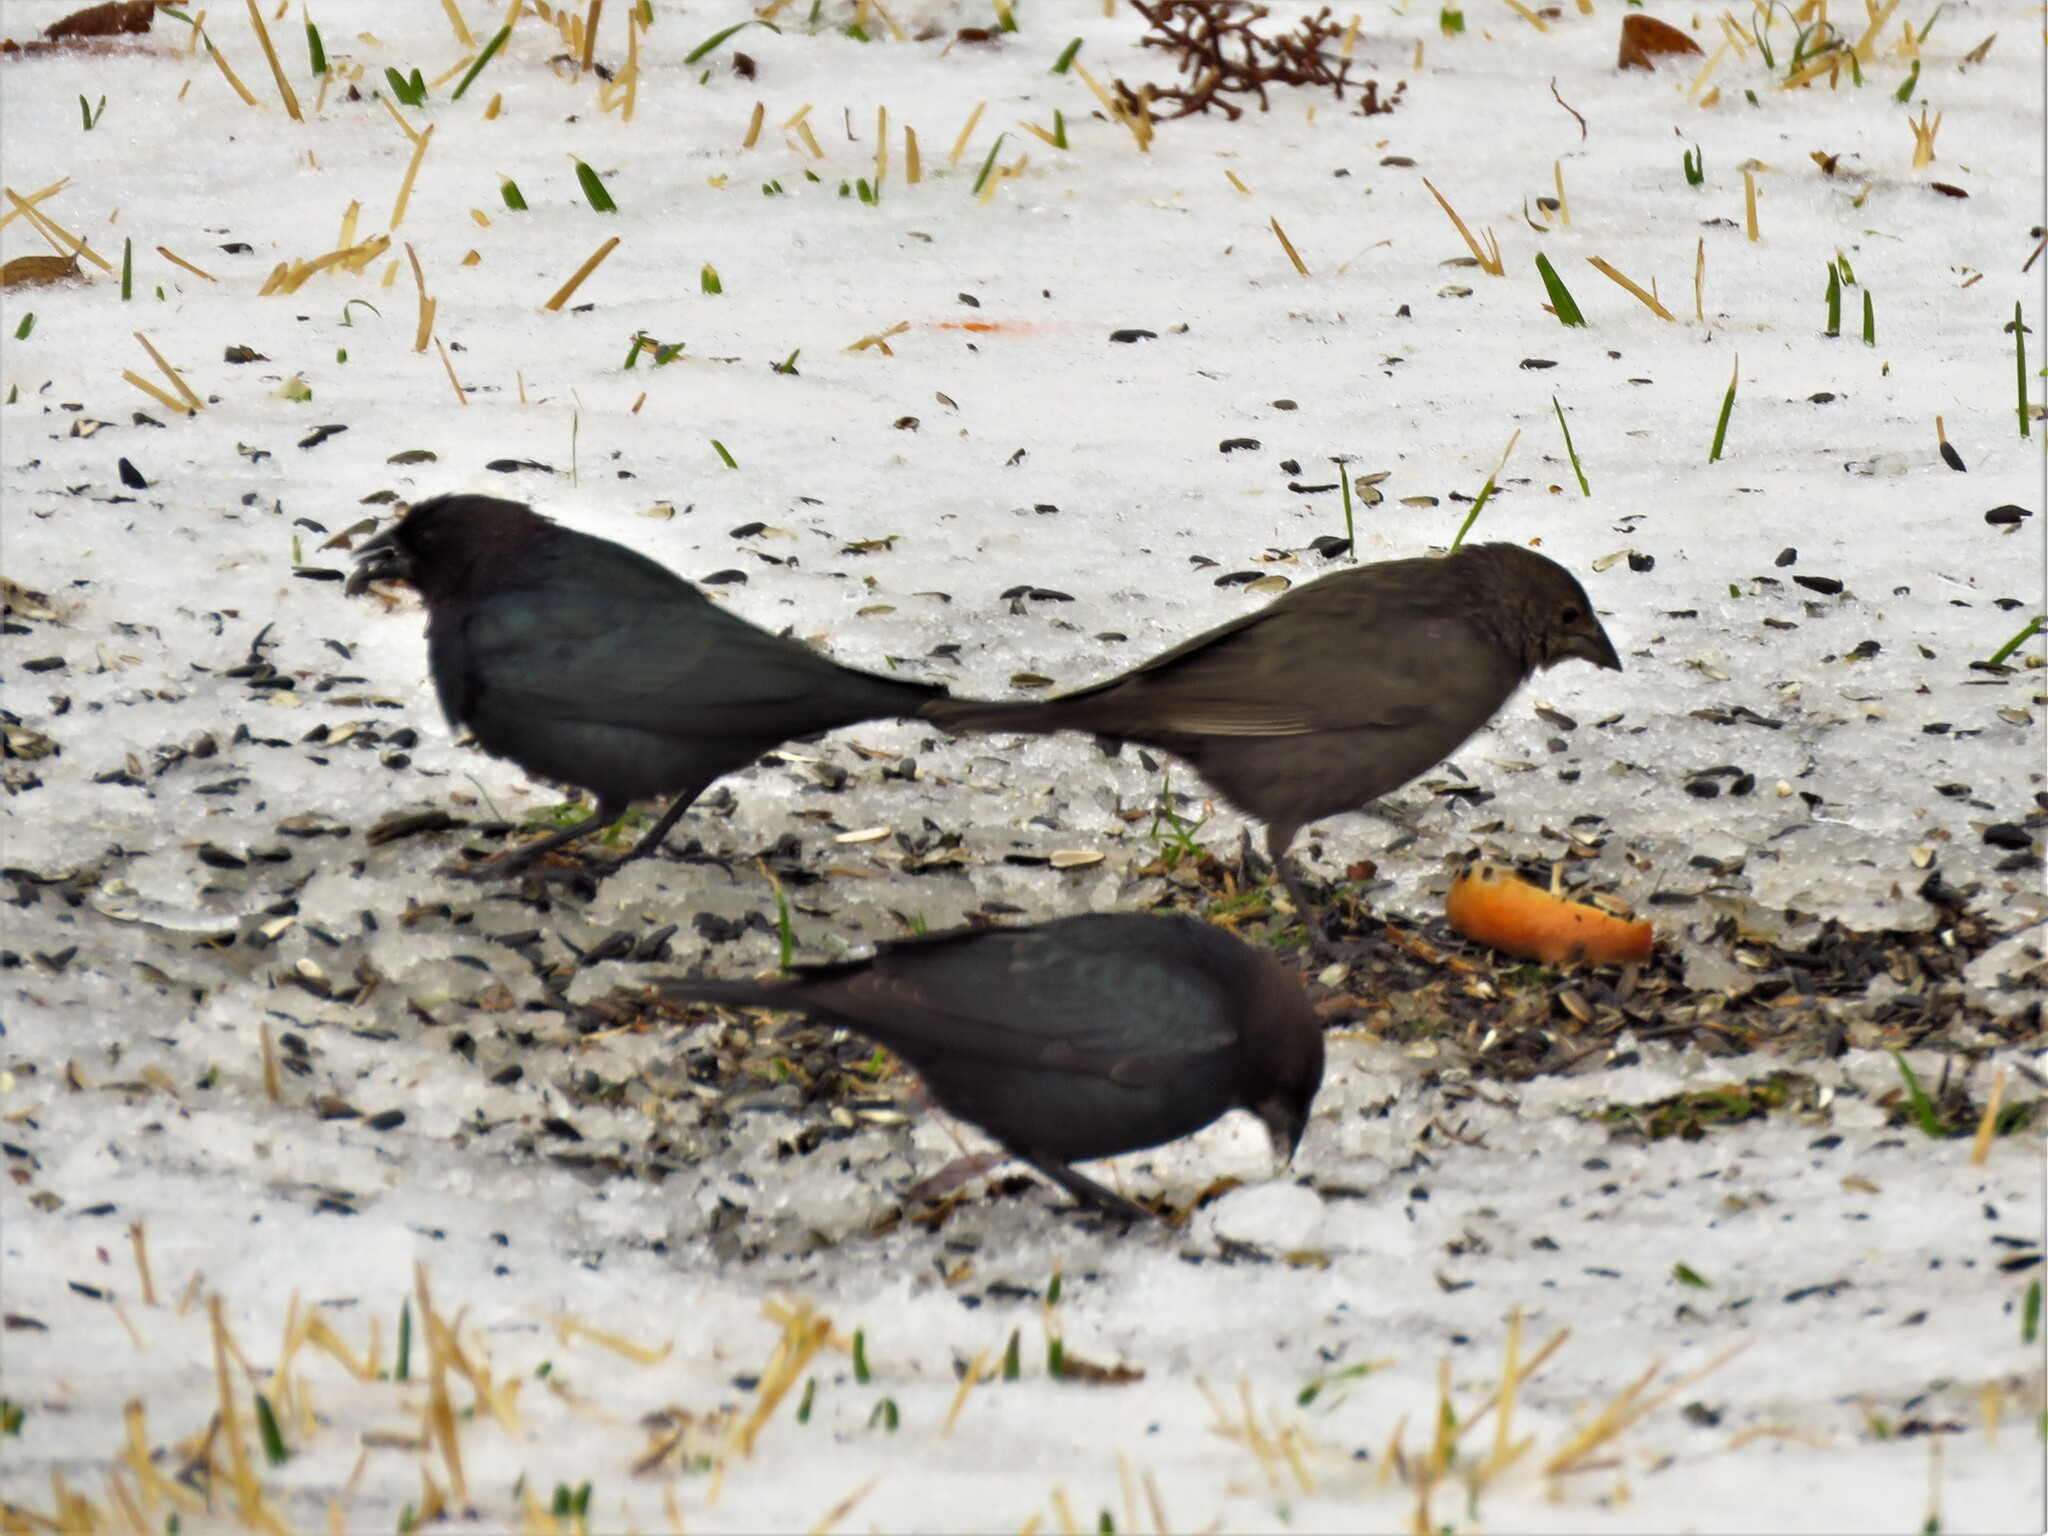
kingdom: Animalia
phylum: Chordata
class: Aves
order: Passeriformes
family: Icteridae
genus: Molothrus
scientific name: Molothrus ater
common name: Brown-headed cowbird
